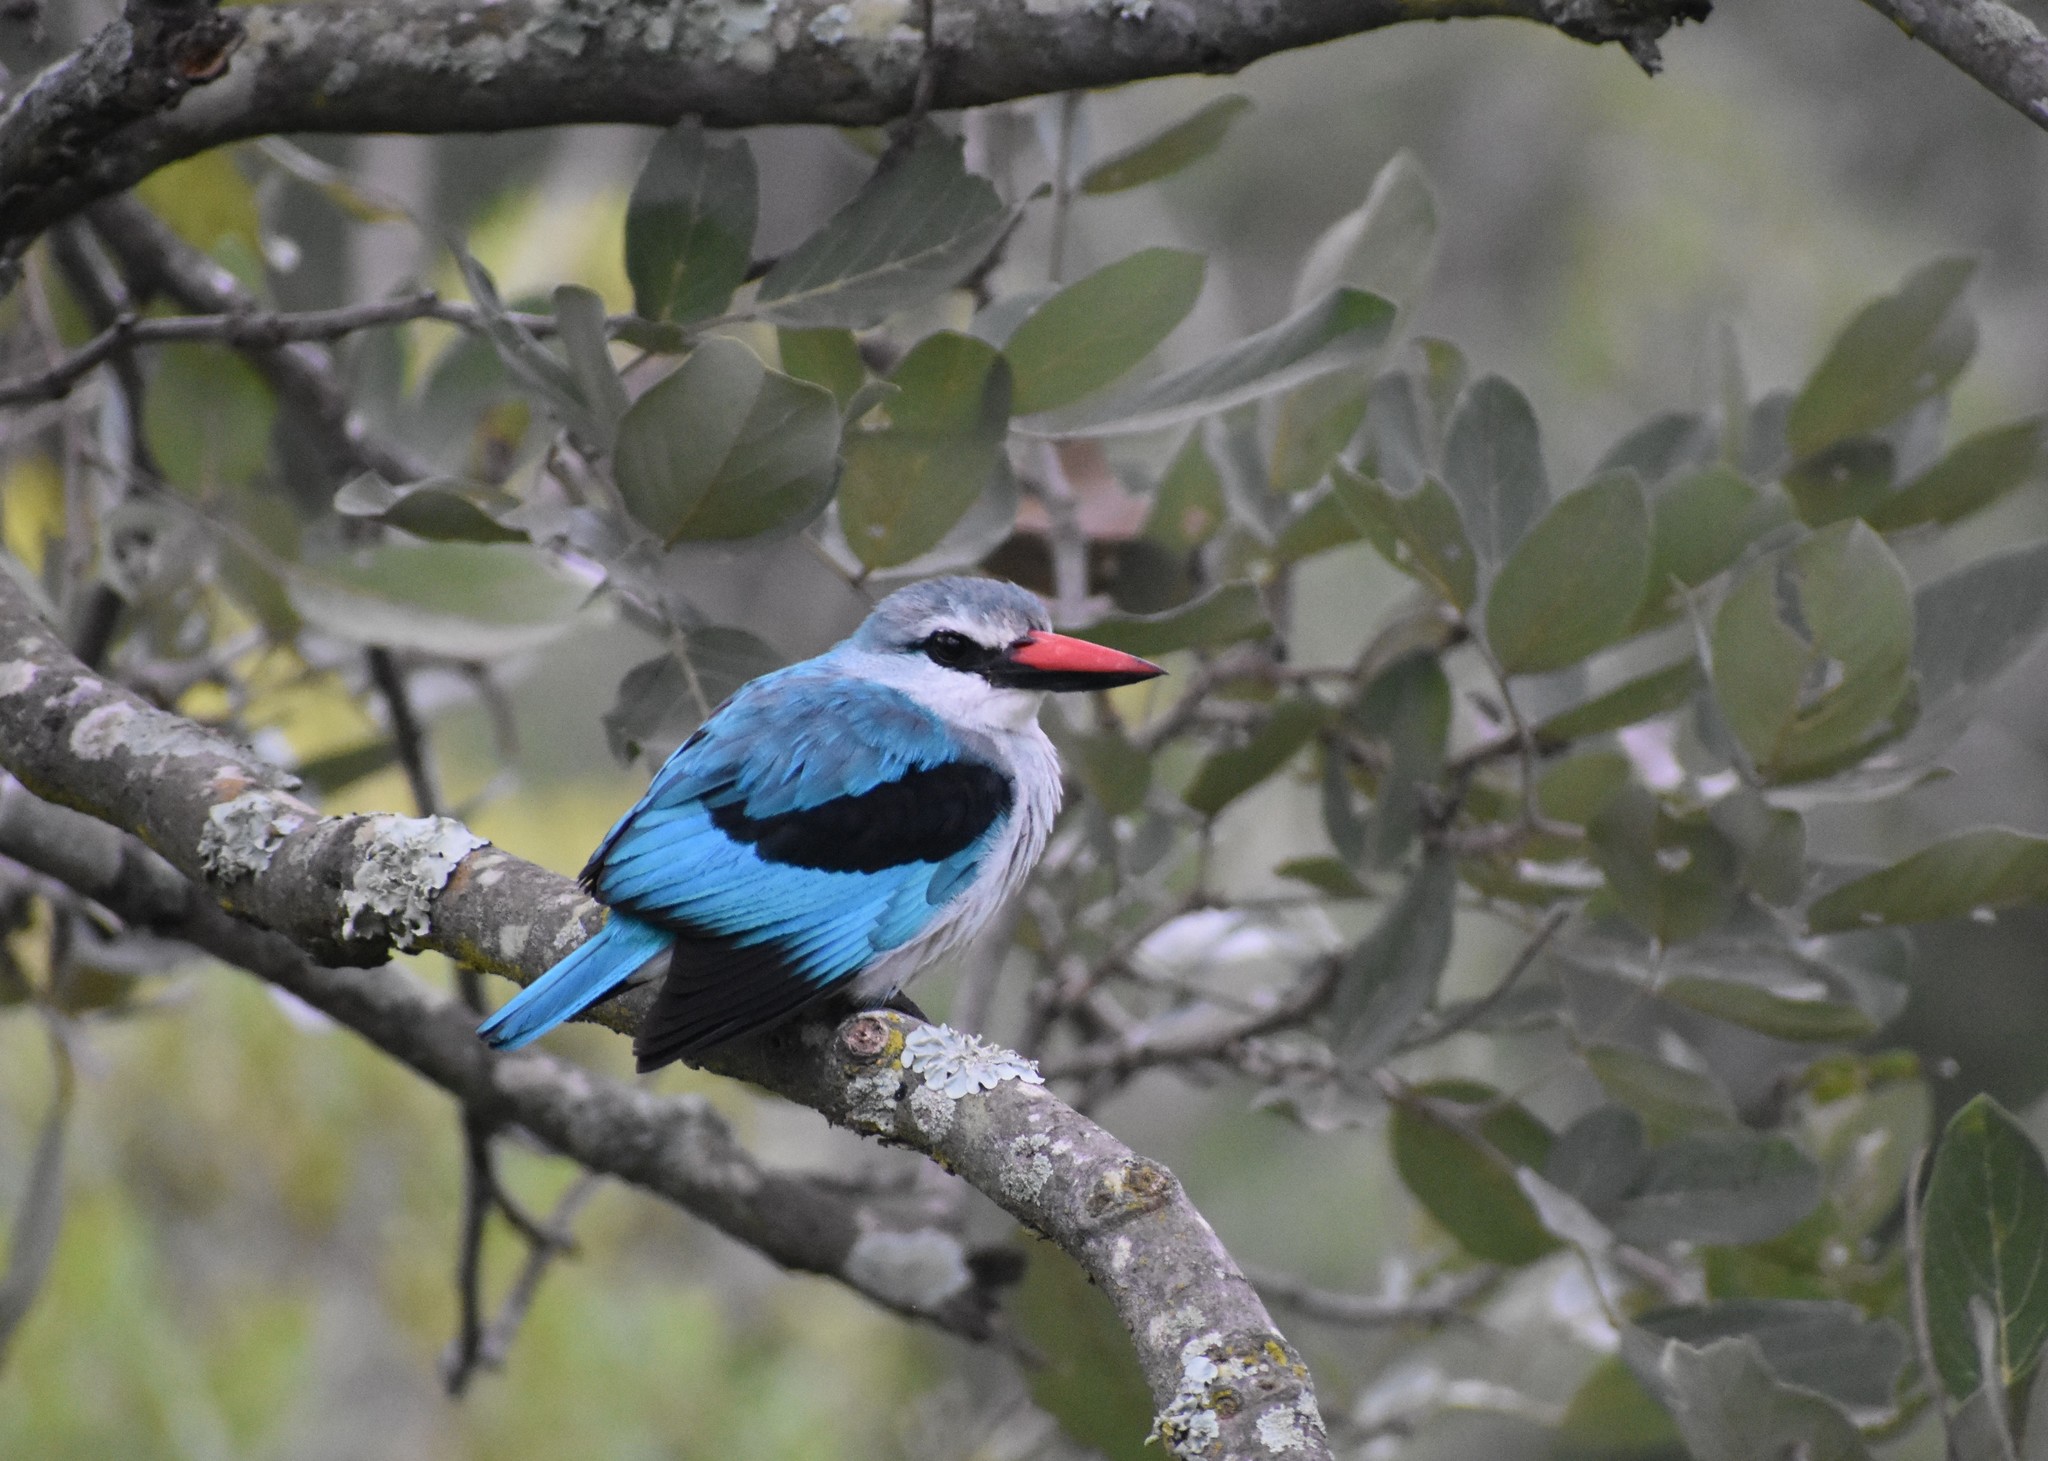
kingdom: Animalia
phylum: Chordata
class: Aves
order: Coraciiformes
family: Alcedinidae
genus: Halcyon
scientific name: Halcyon senegalensis
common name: Woodland kingfisher
